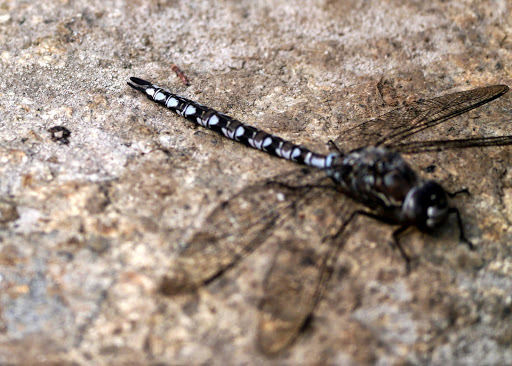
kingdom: Animalia
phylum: Arthropoda
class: Insecta
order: Odonata
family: Aeshnidae
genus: Aeshna
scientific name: Aeshna sitchensis
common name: Zigzag darner
